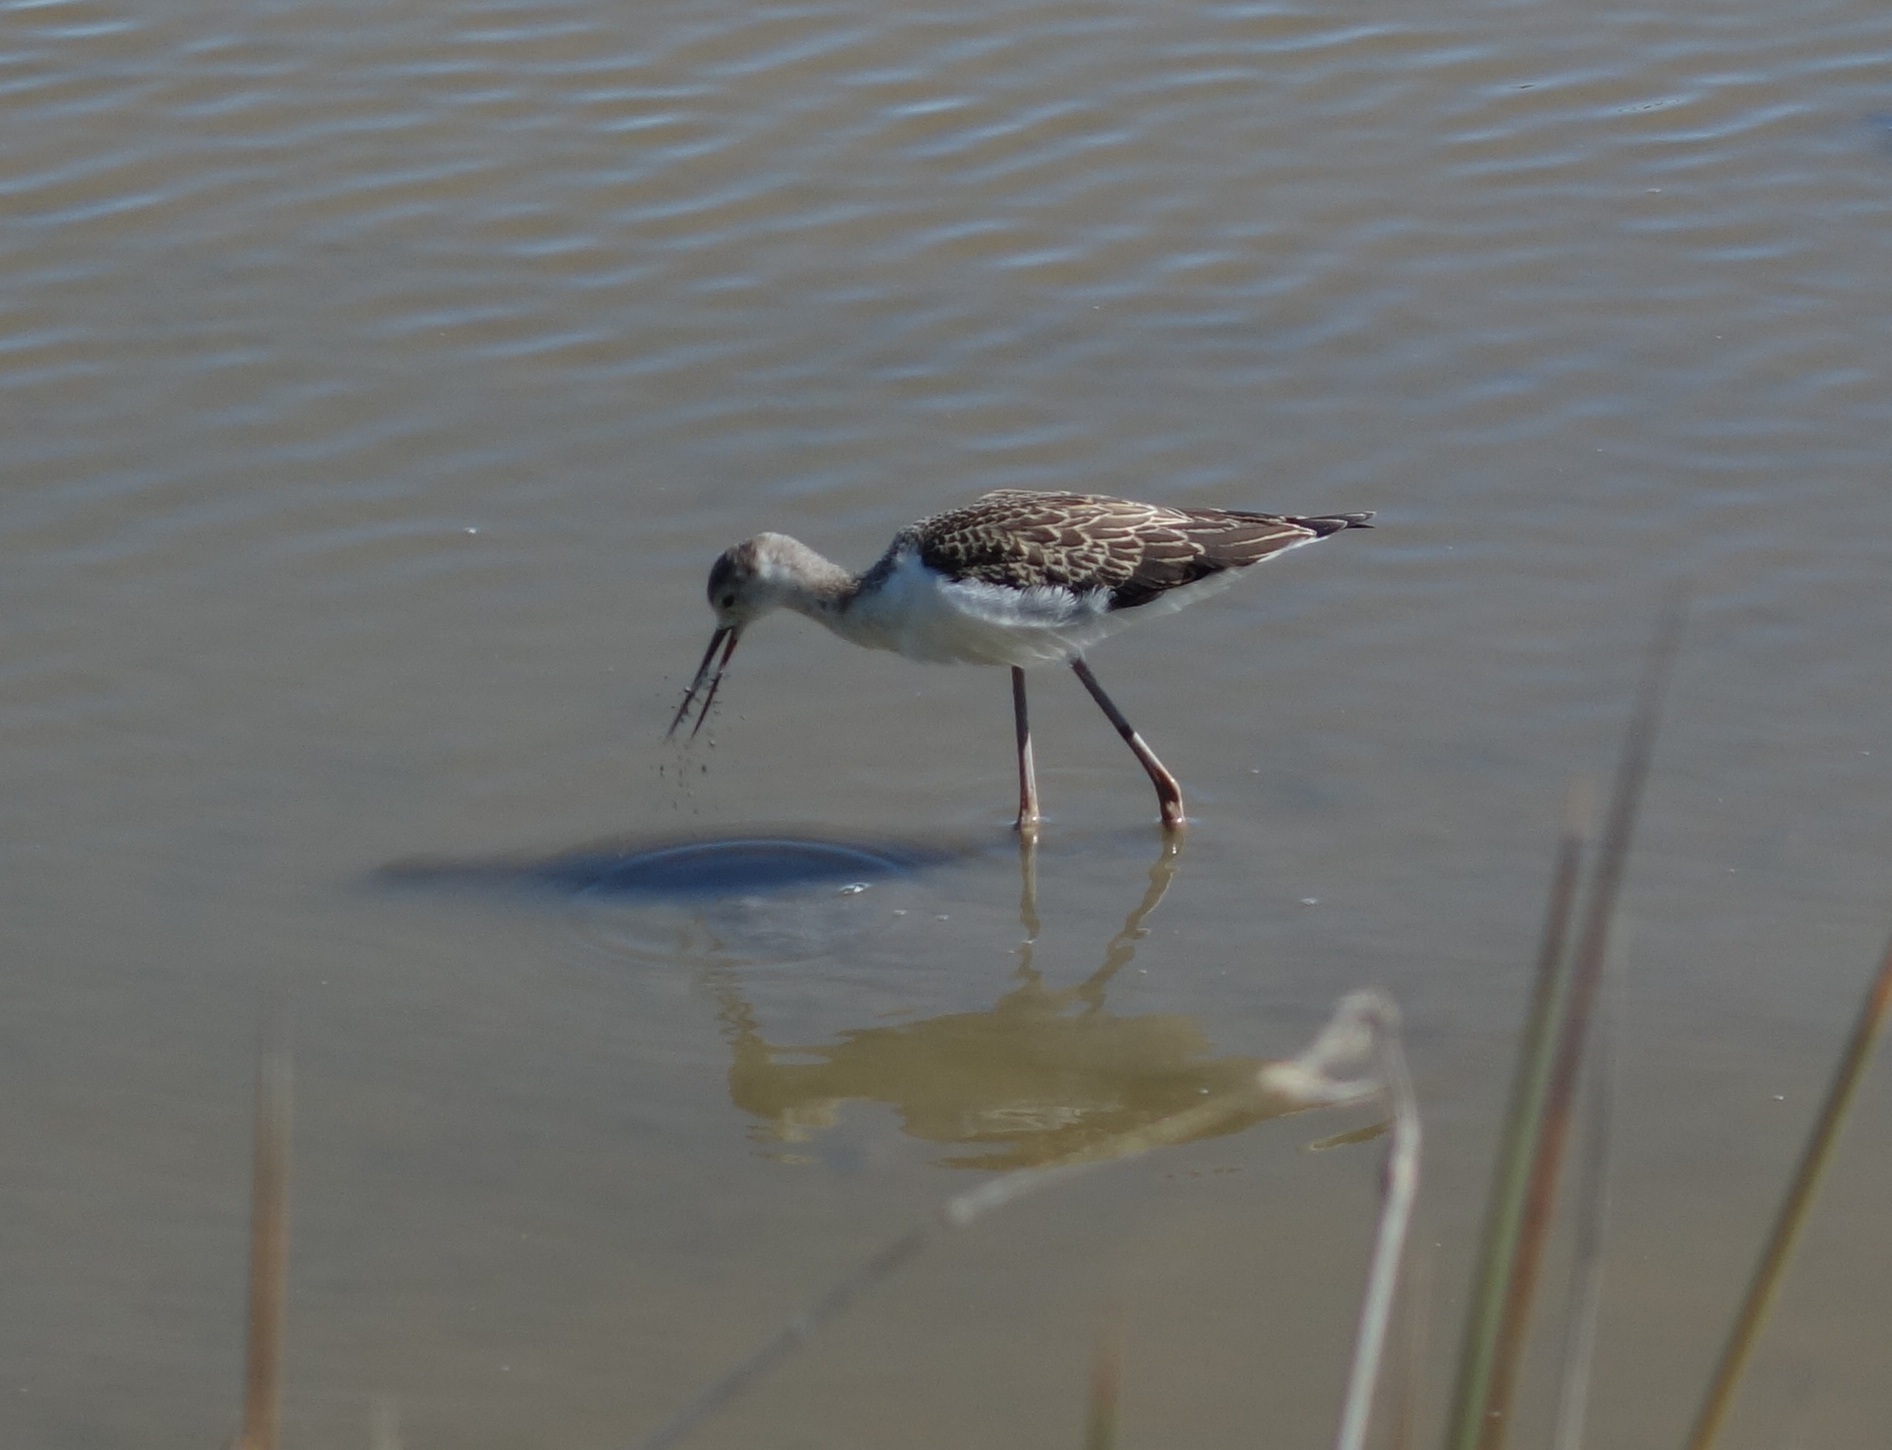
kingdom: Animalia
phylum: Chordata
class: Aves
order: Charadriiformes
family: Recurvirostridae
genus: Himantopus
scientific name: Himantopus himantopus
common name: Black-winged stilt
